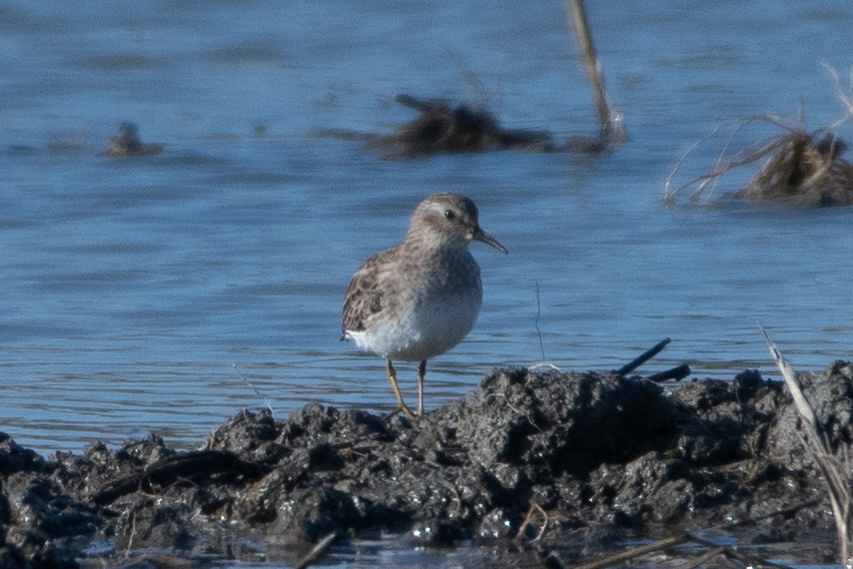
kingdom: Animalia
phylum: Chordata
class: Aves
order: Charadriiformes
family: Scolopacidae
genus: Calidris
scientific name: Calidris minutilla
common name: Least sandpiper
